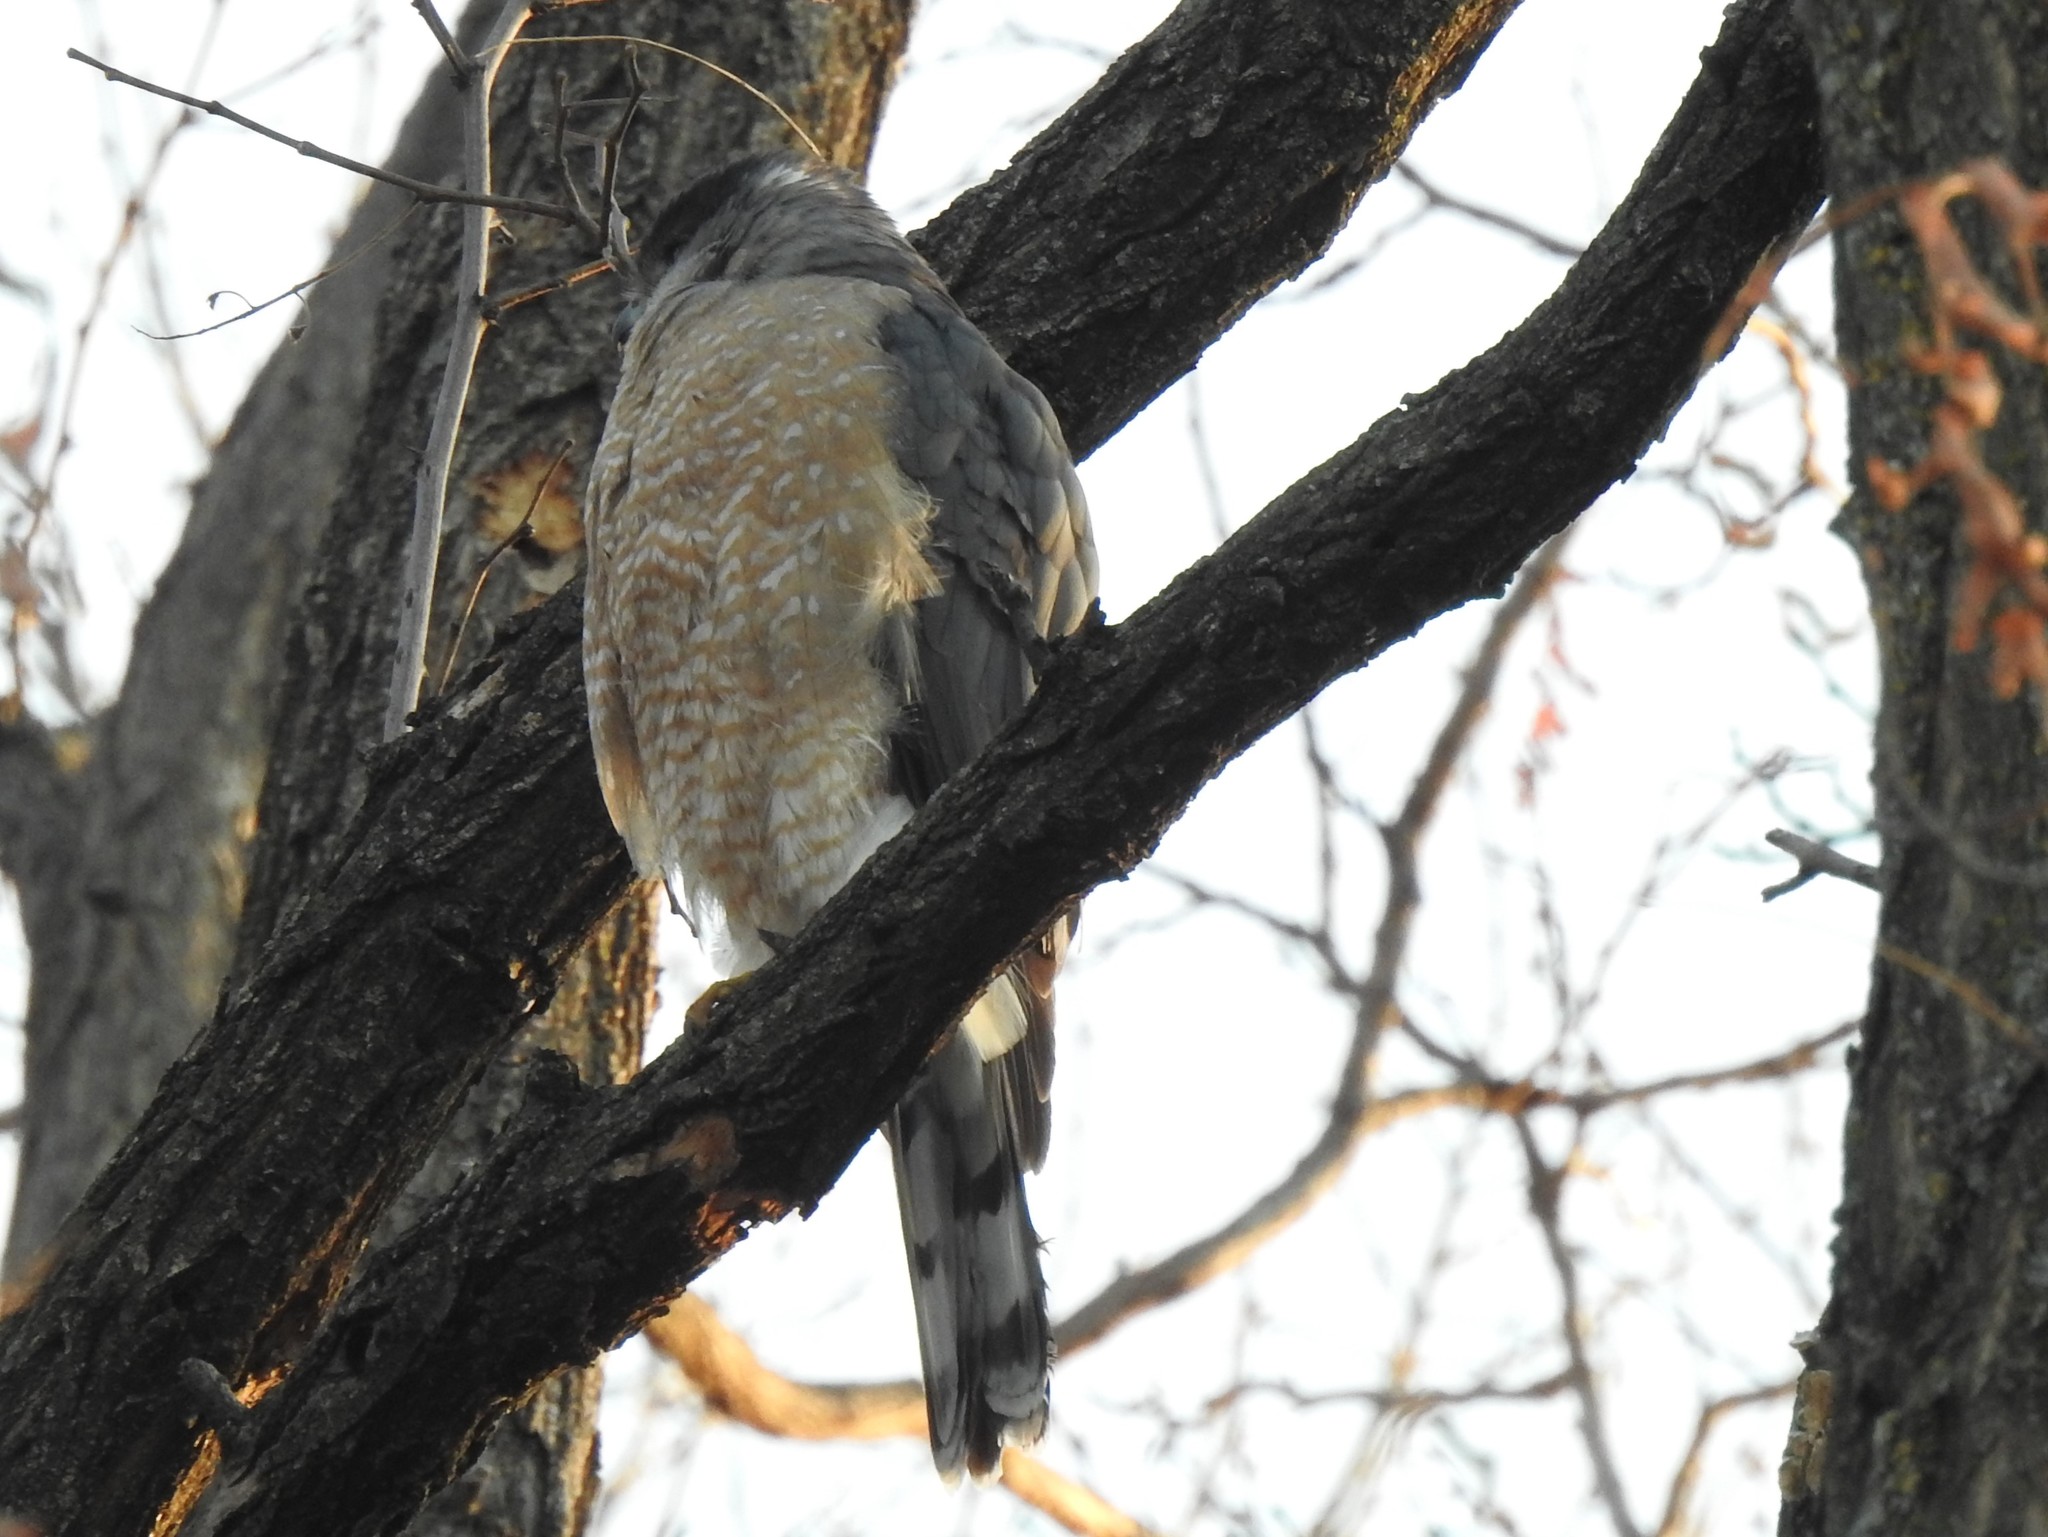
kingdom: Animalia
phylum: Chordata
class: Aves
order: Accipitriformes
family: Accipitridae
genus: Accipiter
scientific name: Accipiter cooperii
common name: Cooper's hawk
